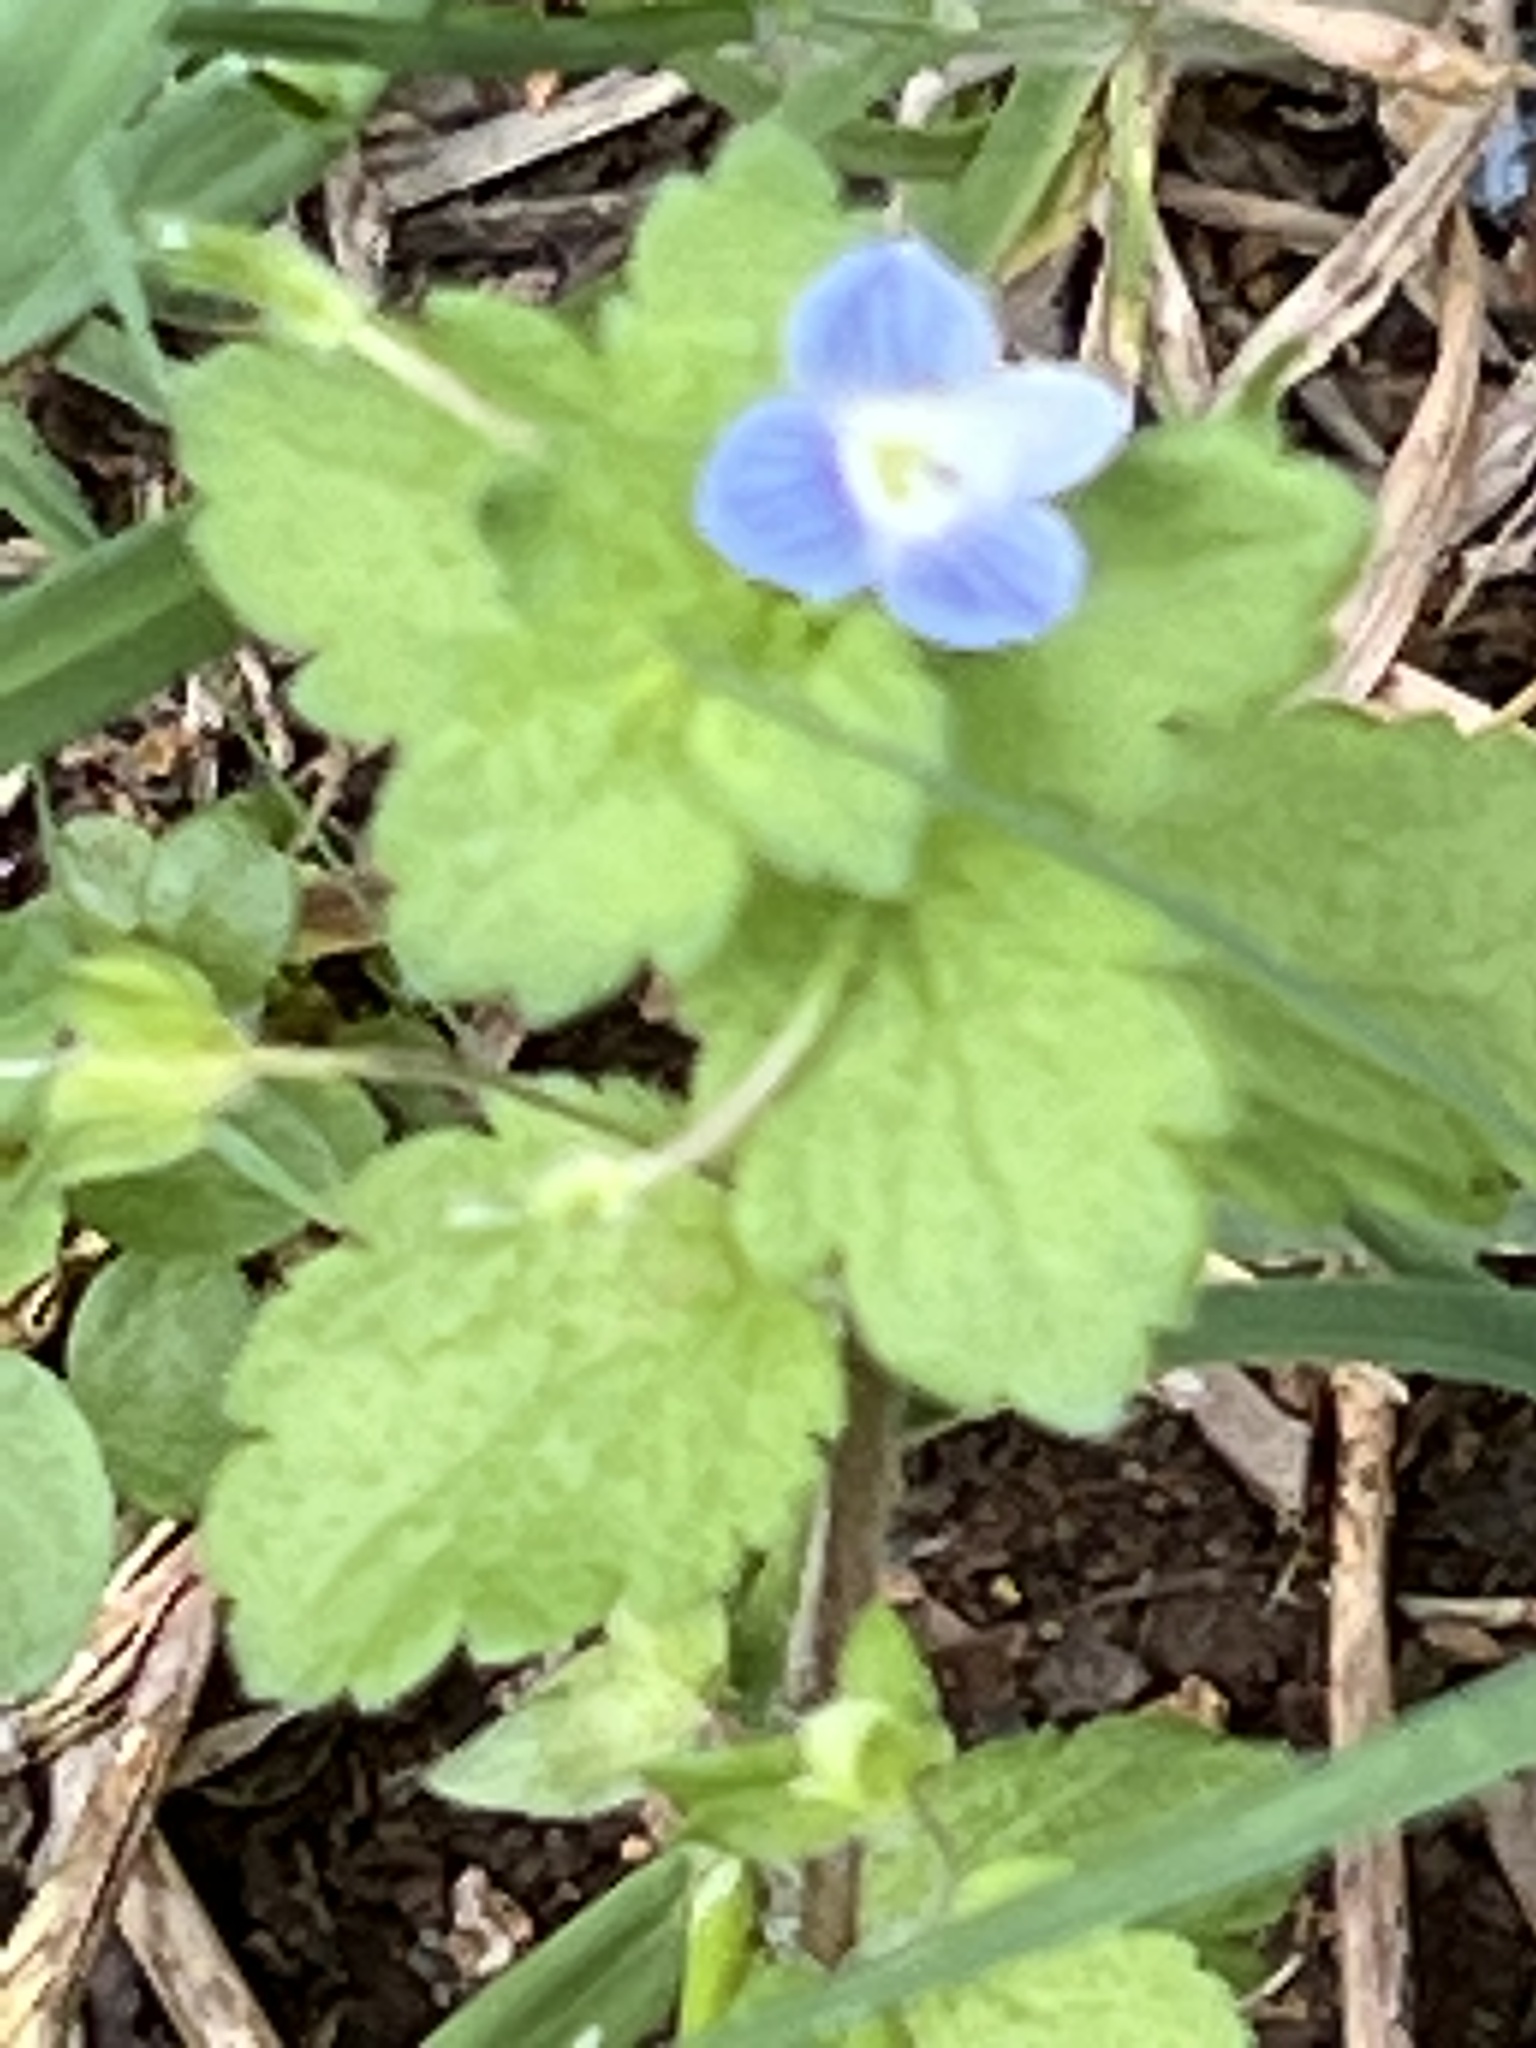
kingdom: Plantae
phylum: Tracheophyta
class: Magnoliopsida
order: Lamiales
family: Plantaginaceae
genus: Veronica
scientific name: Veronica persica
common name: Common field-speedwell
